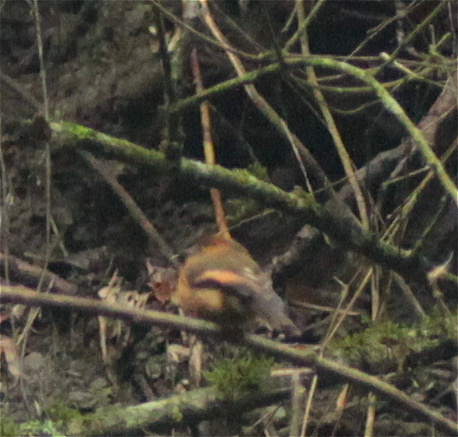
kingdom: Animalia
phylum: Chordata
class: Aves
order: Passeriformes
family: Tyrannidae
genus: Pyrrhomyias
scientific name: Pyrrhomyias cinnamomeus
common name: Cinnamon flycatcher
